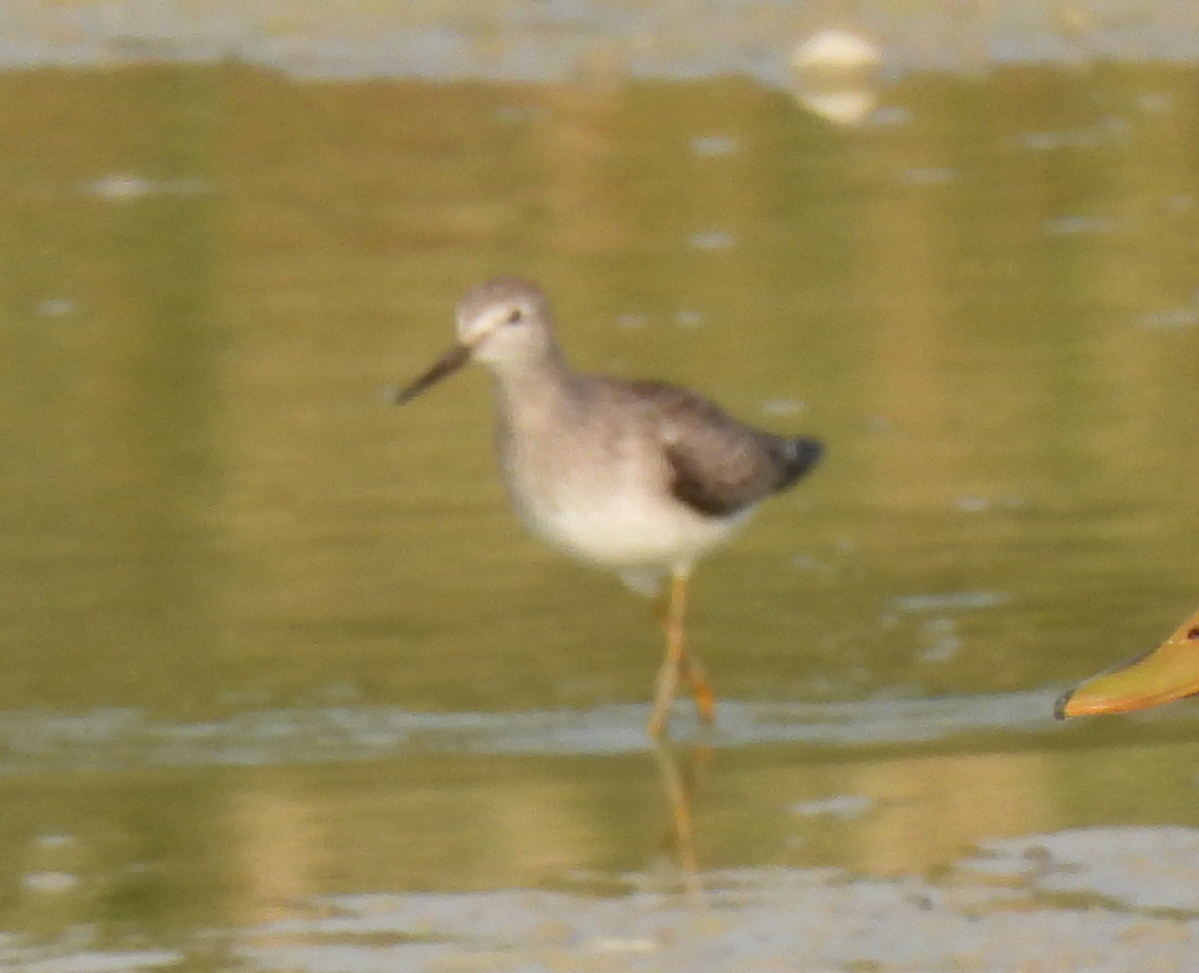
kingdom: Animalia
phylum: Chordata
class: Aves
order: Charadriiformes
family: Scolopacidae
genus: Tringa
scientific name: Tringa flavipes
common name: Lesser yellowlegs
